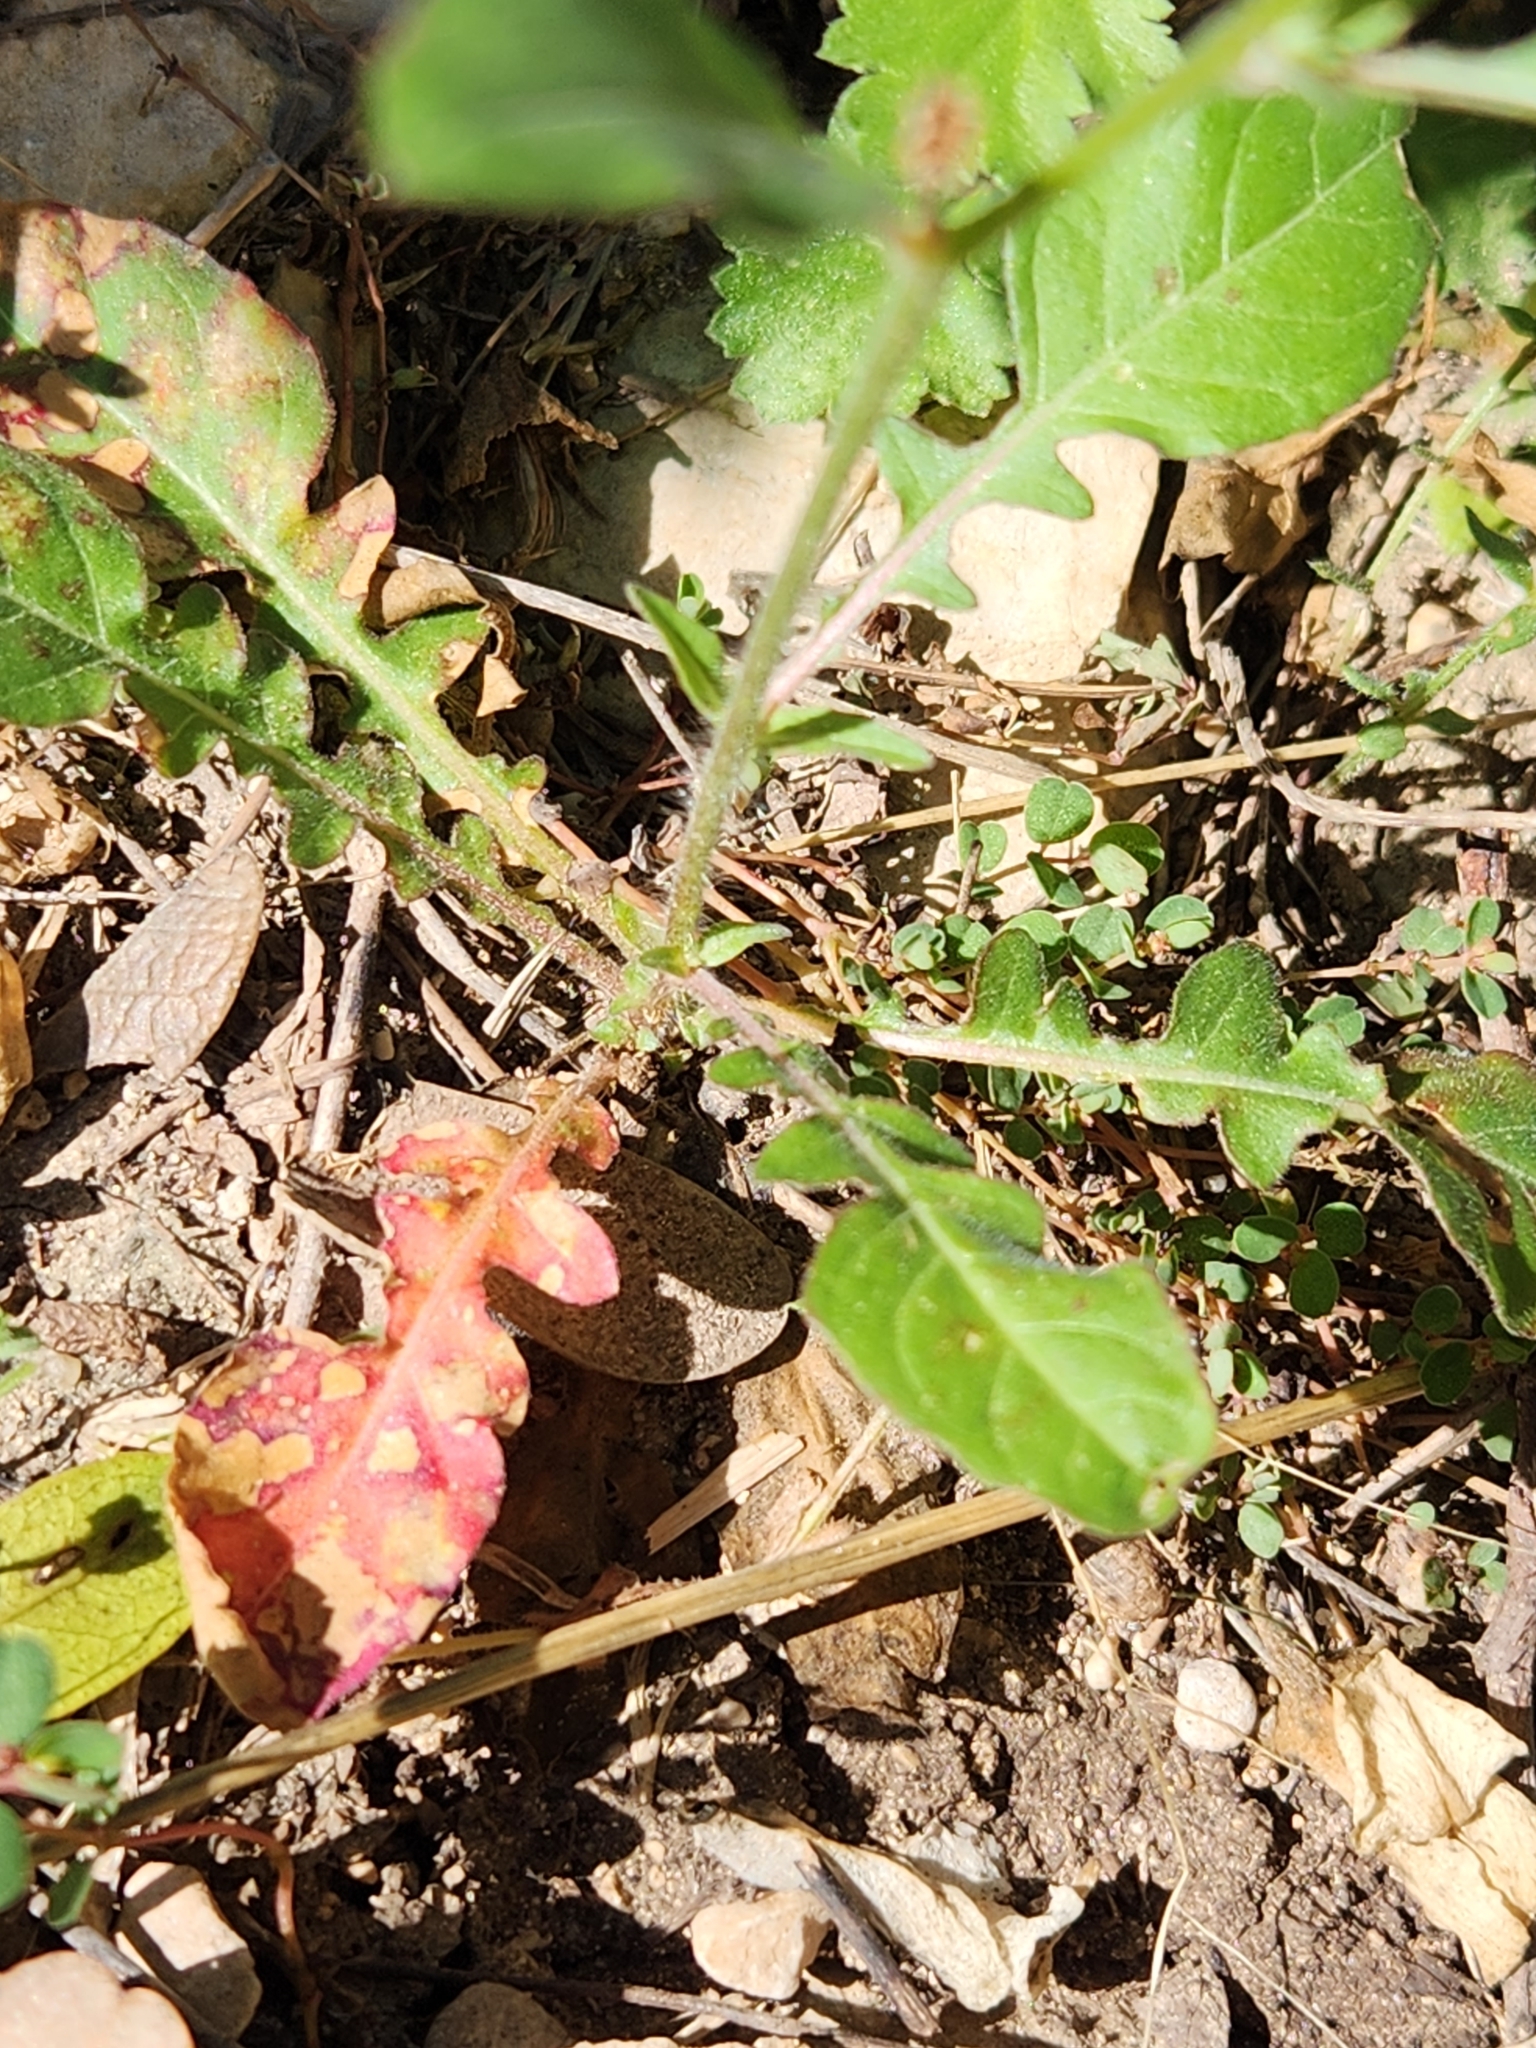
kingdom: Plantae
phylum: Tracheophyta
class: Magnoliopsida
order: Myrtales
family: Onagraceae
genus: Oenothera
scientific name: Oenothera tetraptera
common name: Four-wing evening-primrose
